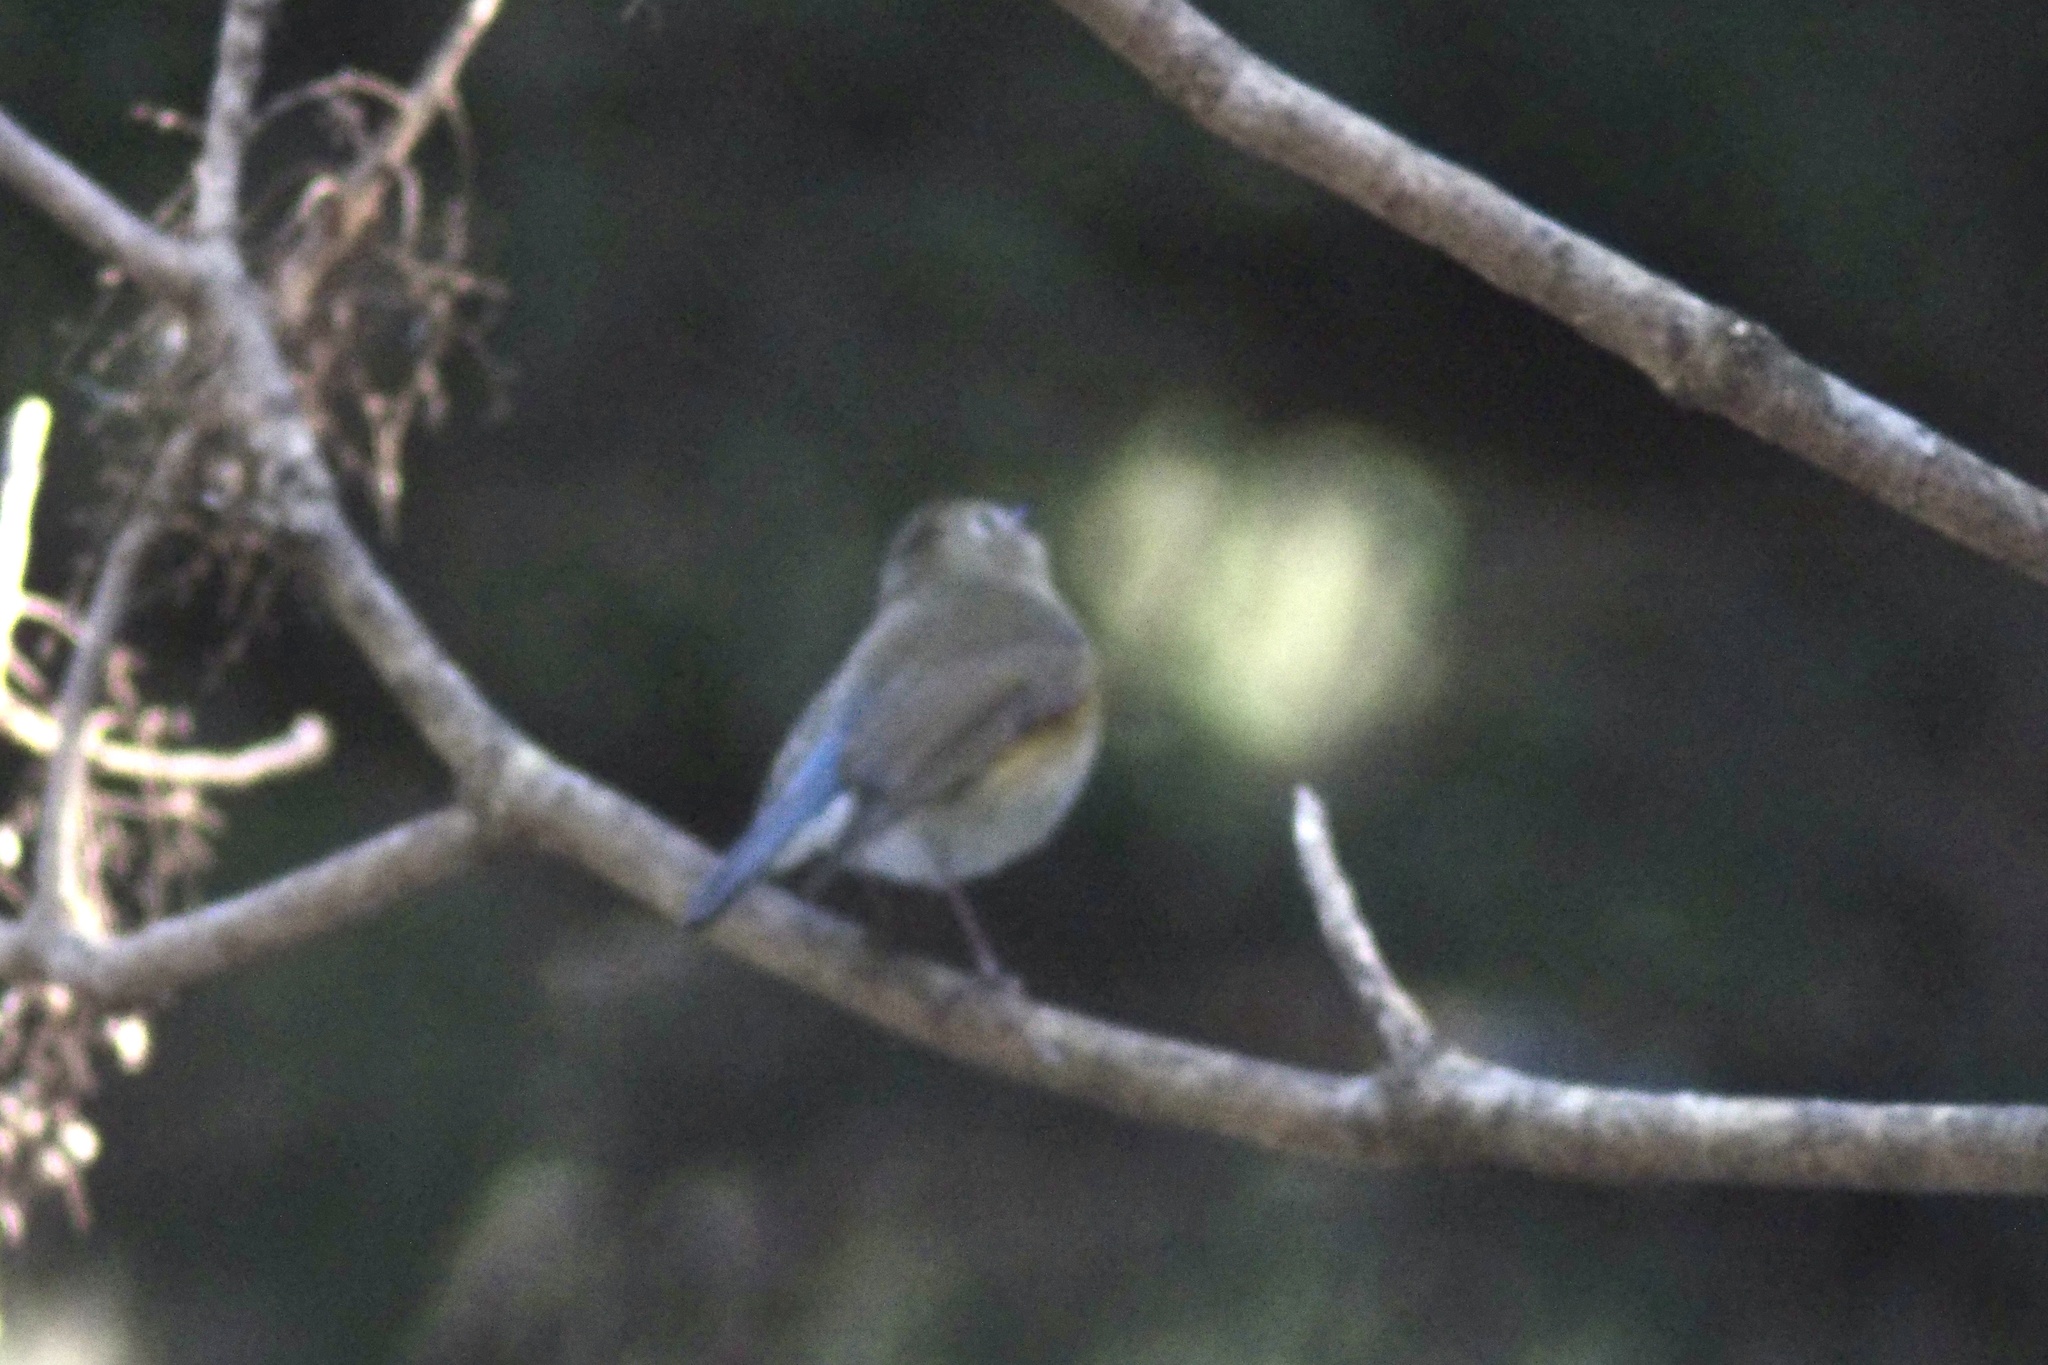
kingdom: Animalia
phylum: Chordata
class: Aves
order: Passeriformes
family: Muscicapidae
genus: Tarsiger
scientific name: Tarsiger cyanurus
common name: Red-flanked bluetail
